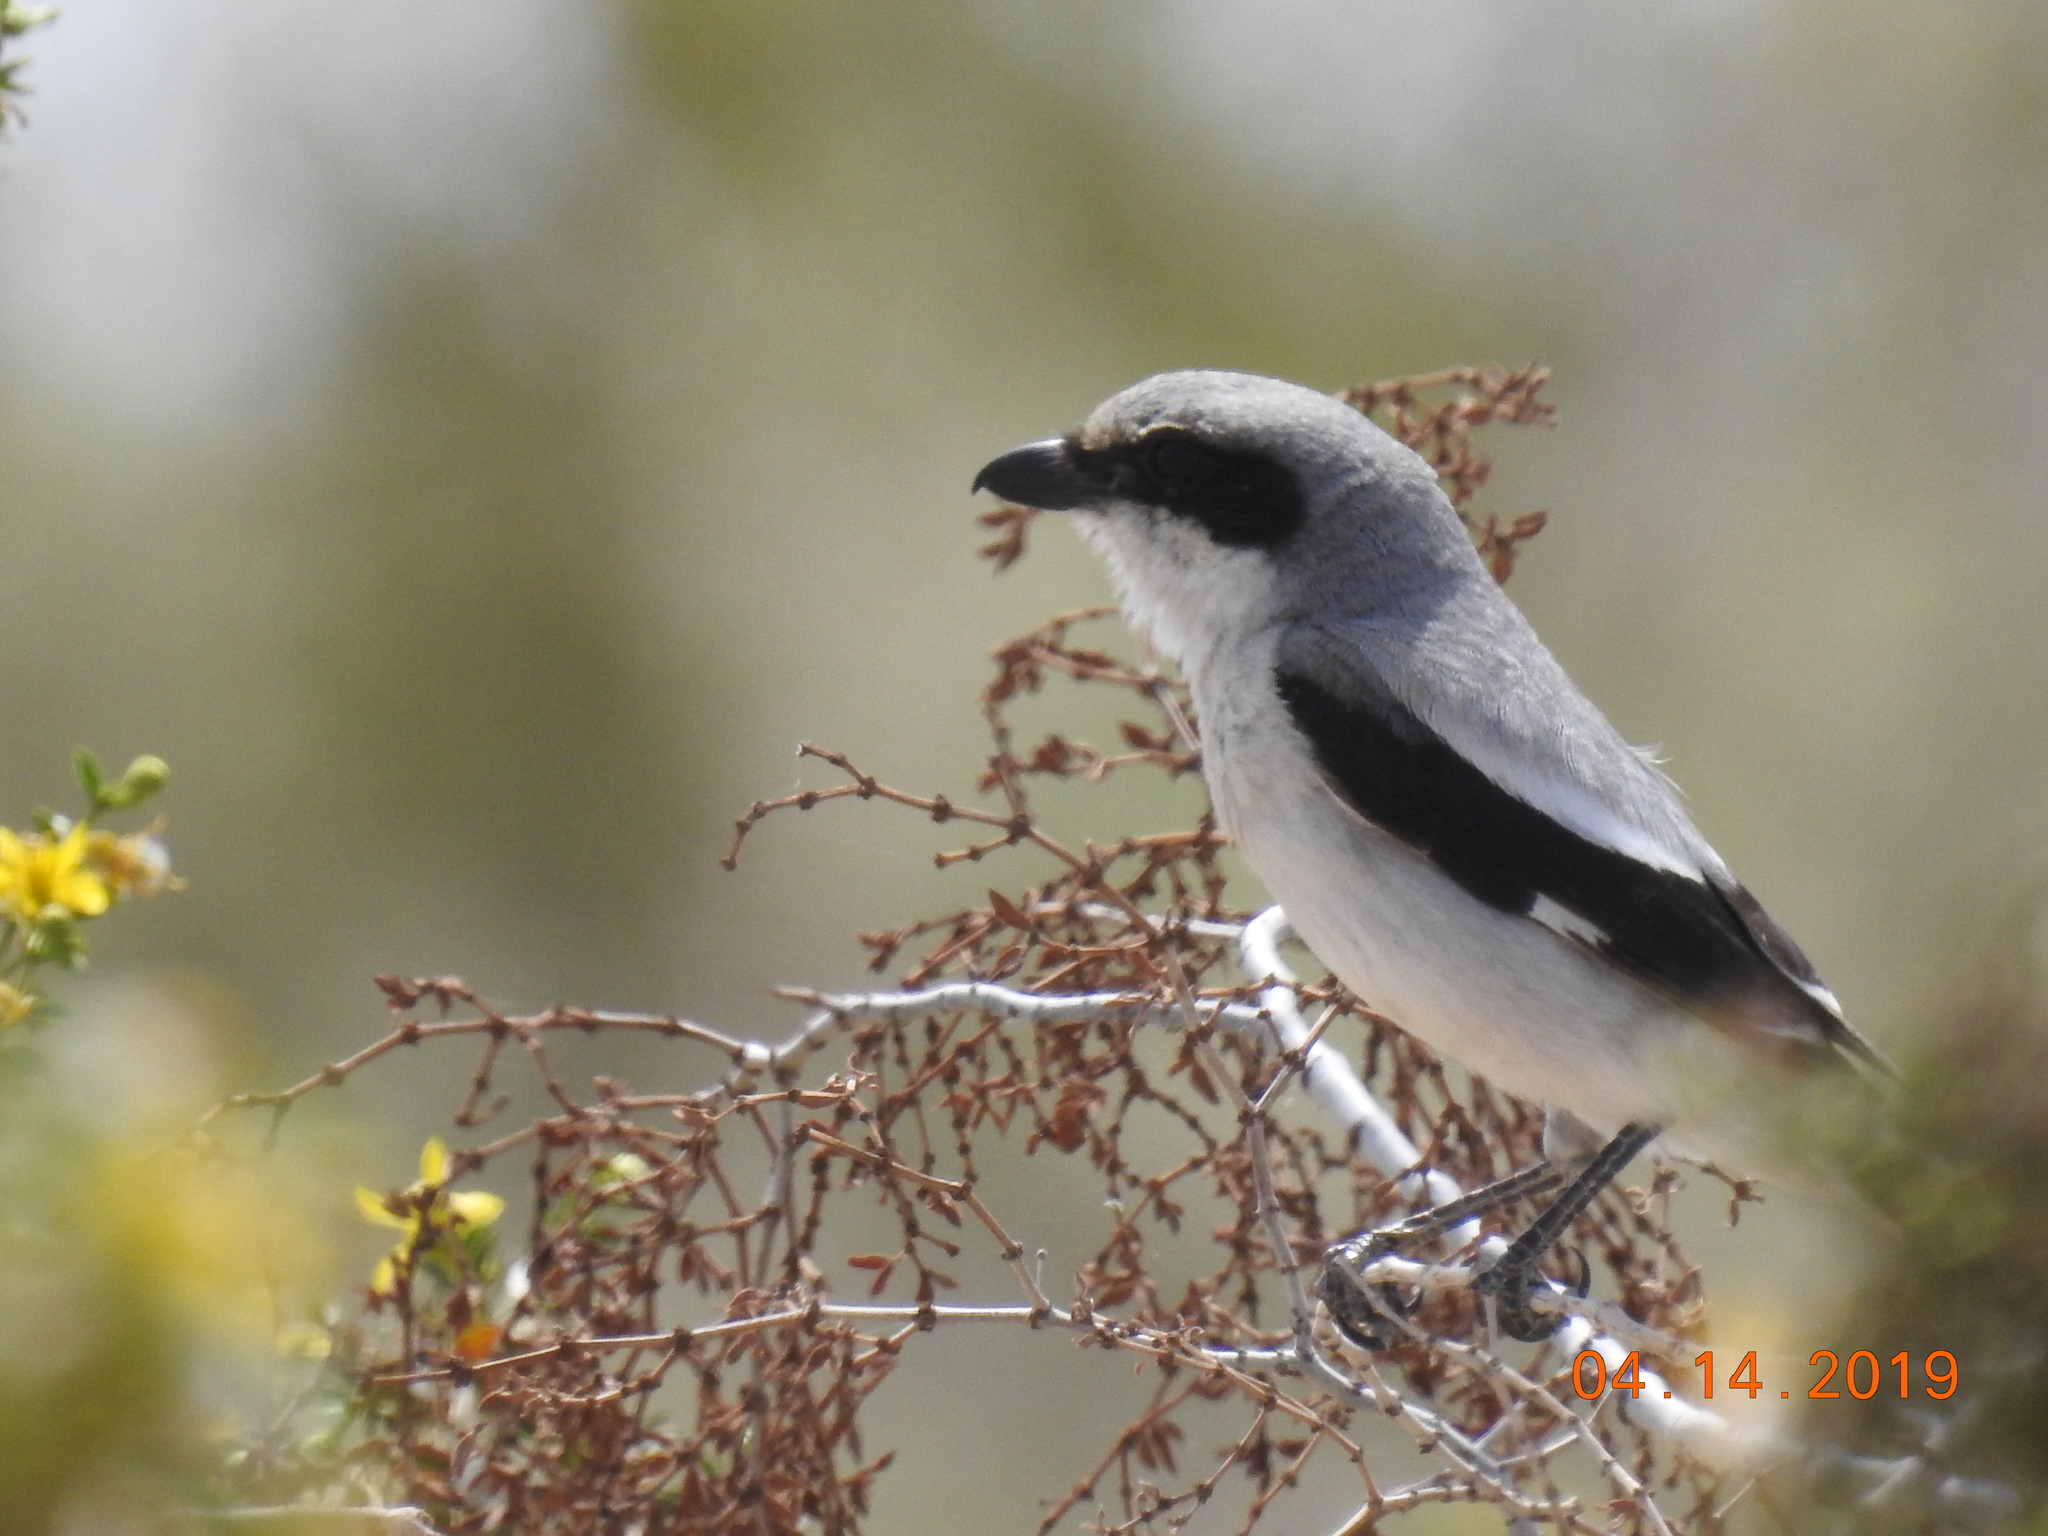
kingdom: Animalia
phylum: Chordata
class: Aves
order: Passeriformes
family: Laniidae
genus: Lanius
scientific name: Lanius ludovicianus
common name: Loggerhead shrike
